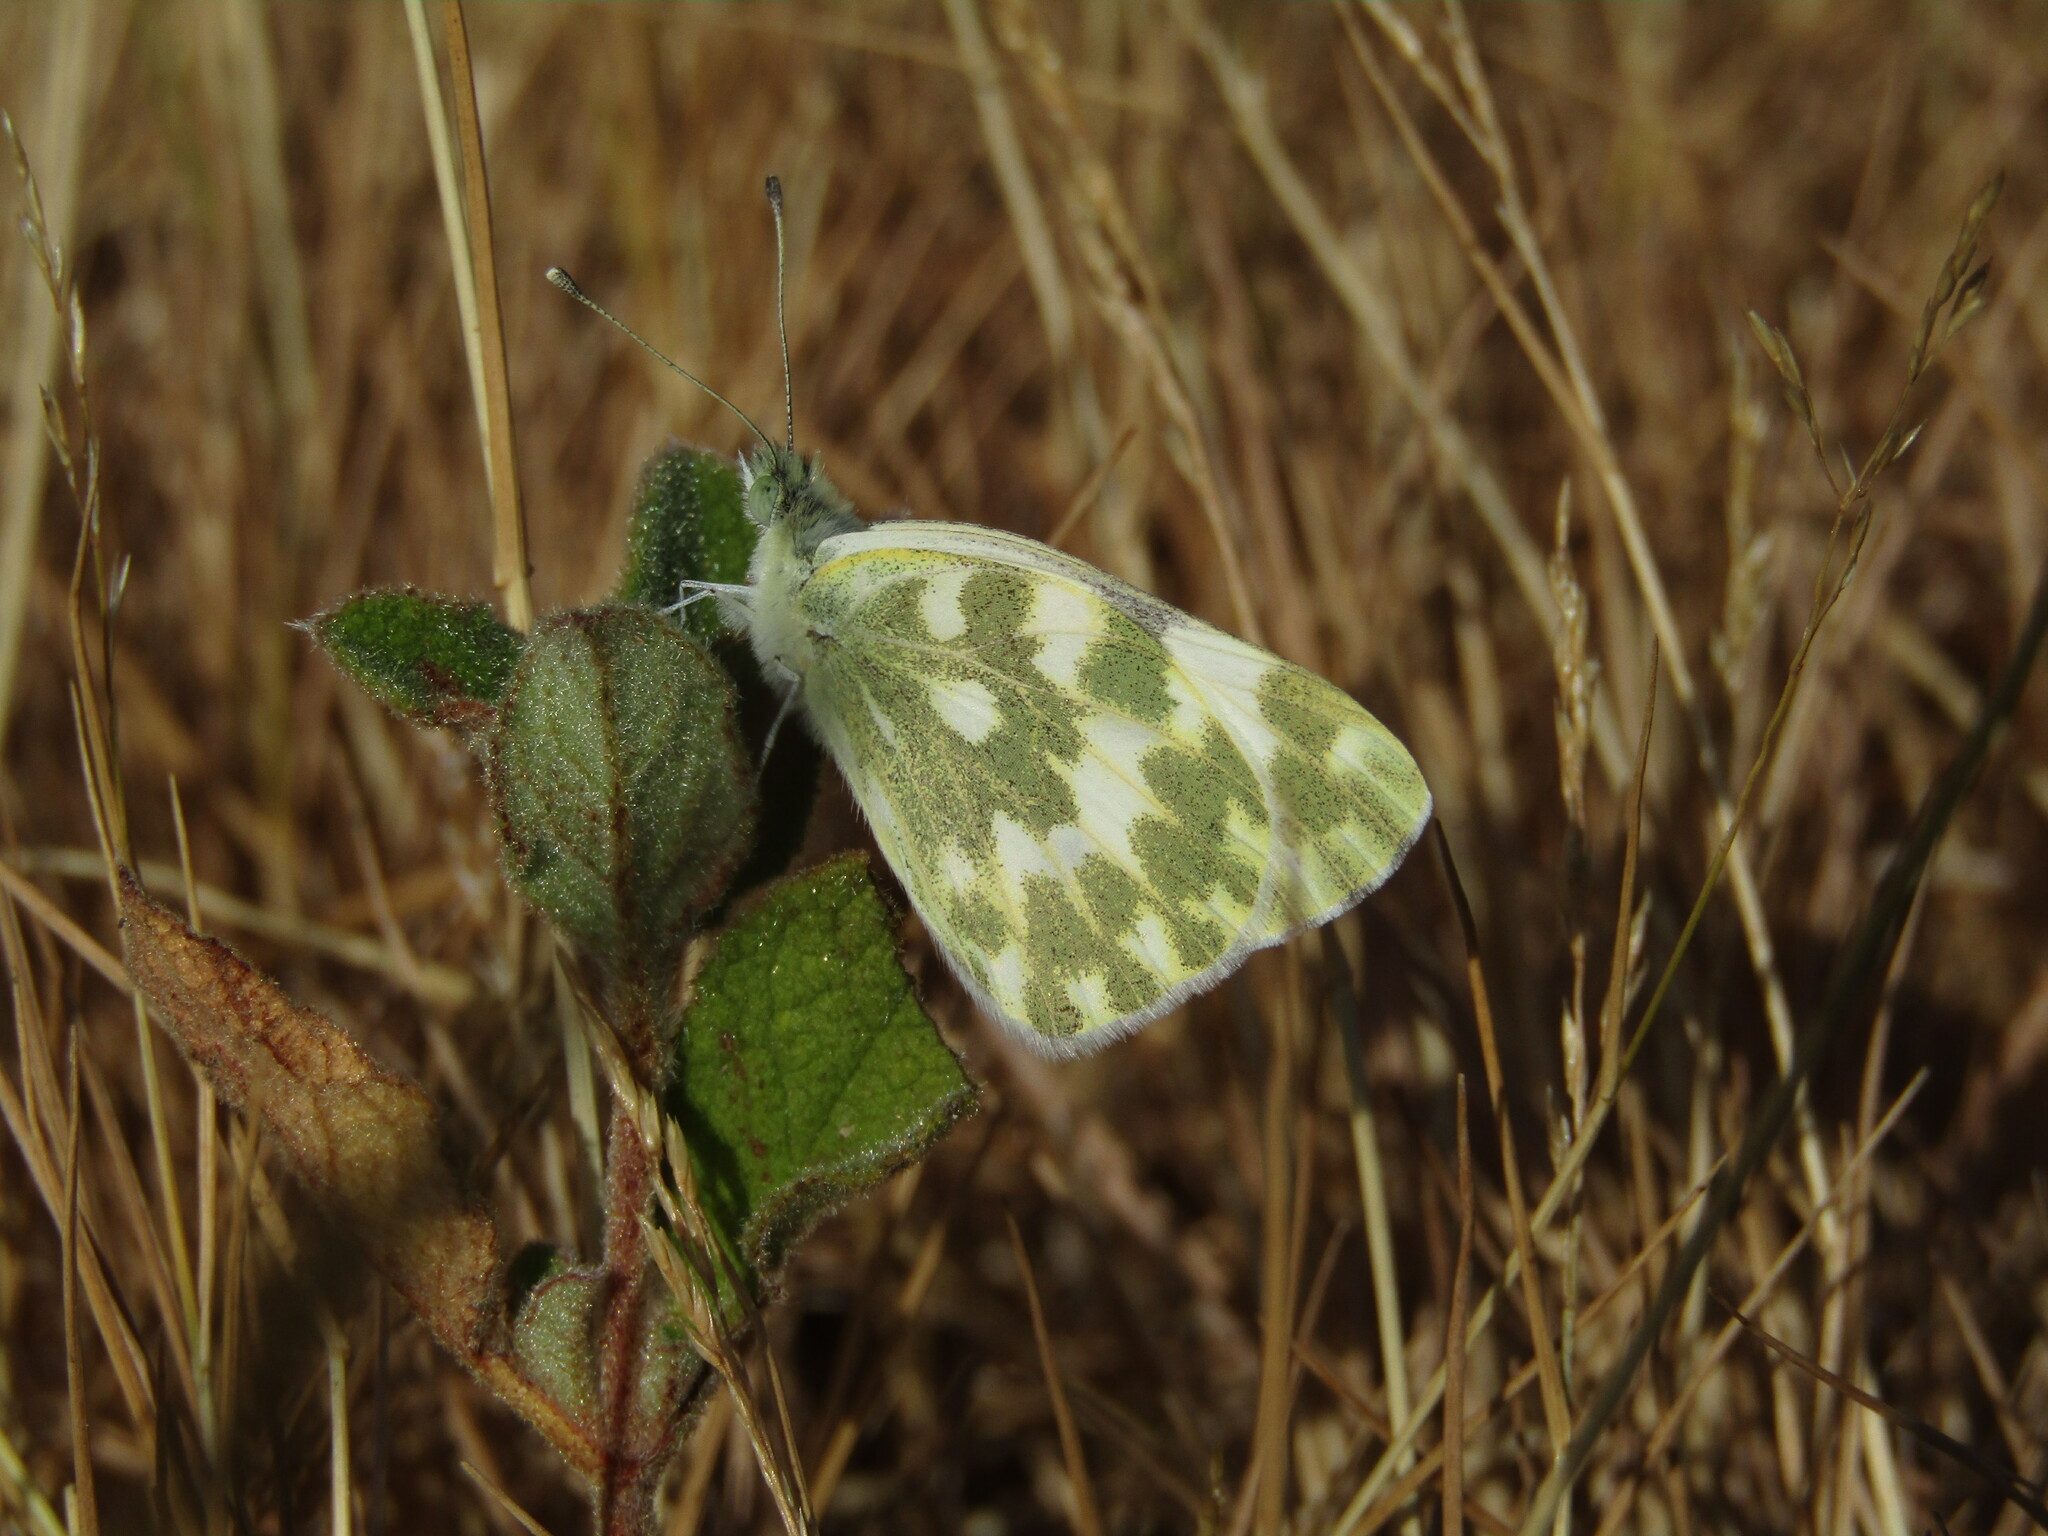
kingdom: Animalia
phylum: Arthropoda
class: Insecta
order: Lepidoptera
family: Pieridae
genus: Pontia
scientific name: Pontia daplidice
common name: Bath white
